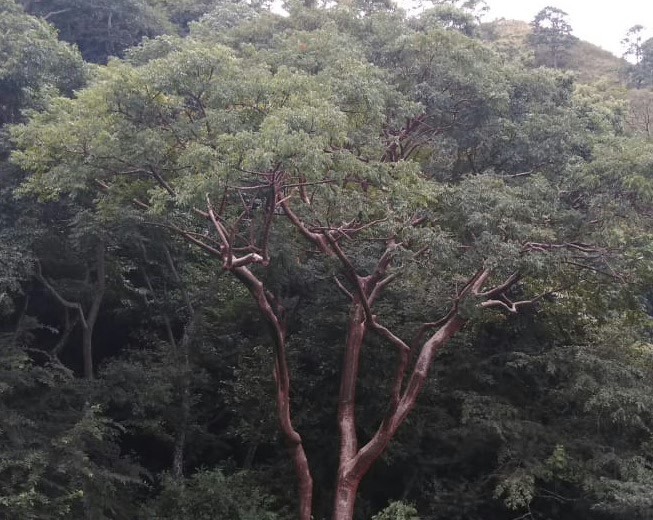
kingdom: Plantae
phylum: Tracheophyta
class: Magnoliopsida
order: Sapindales
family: Burseraceae
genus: Bursera
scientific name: Bursera simaruba
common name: Turpentine tree
